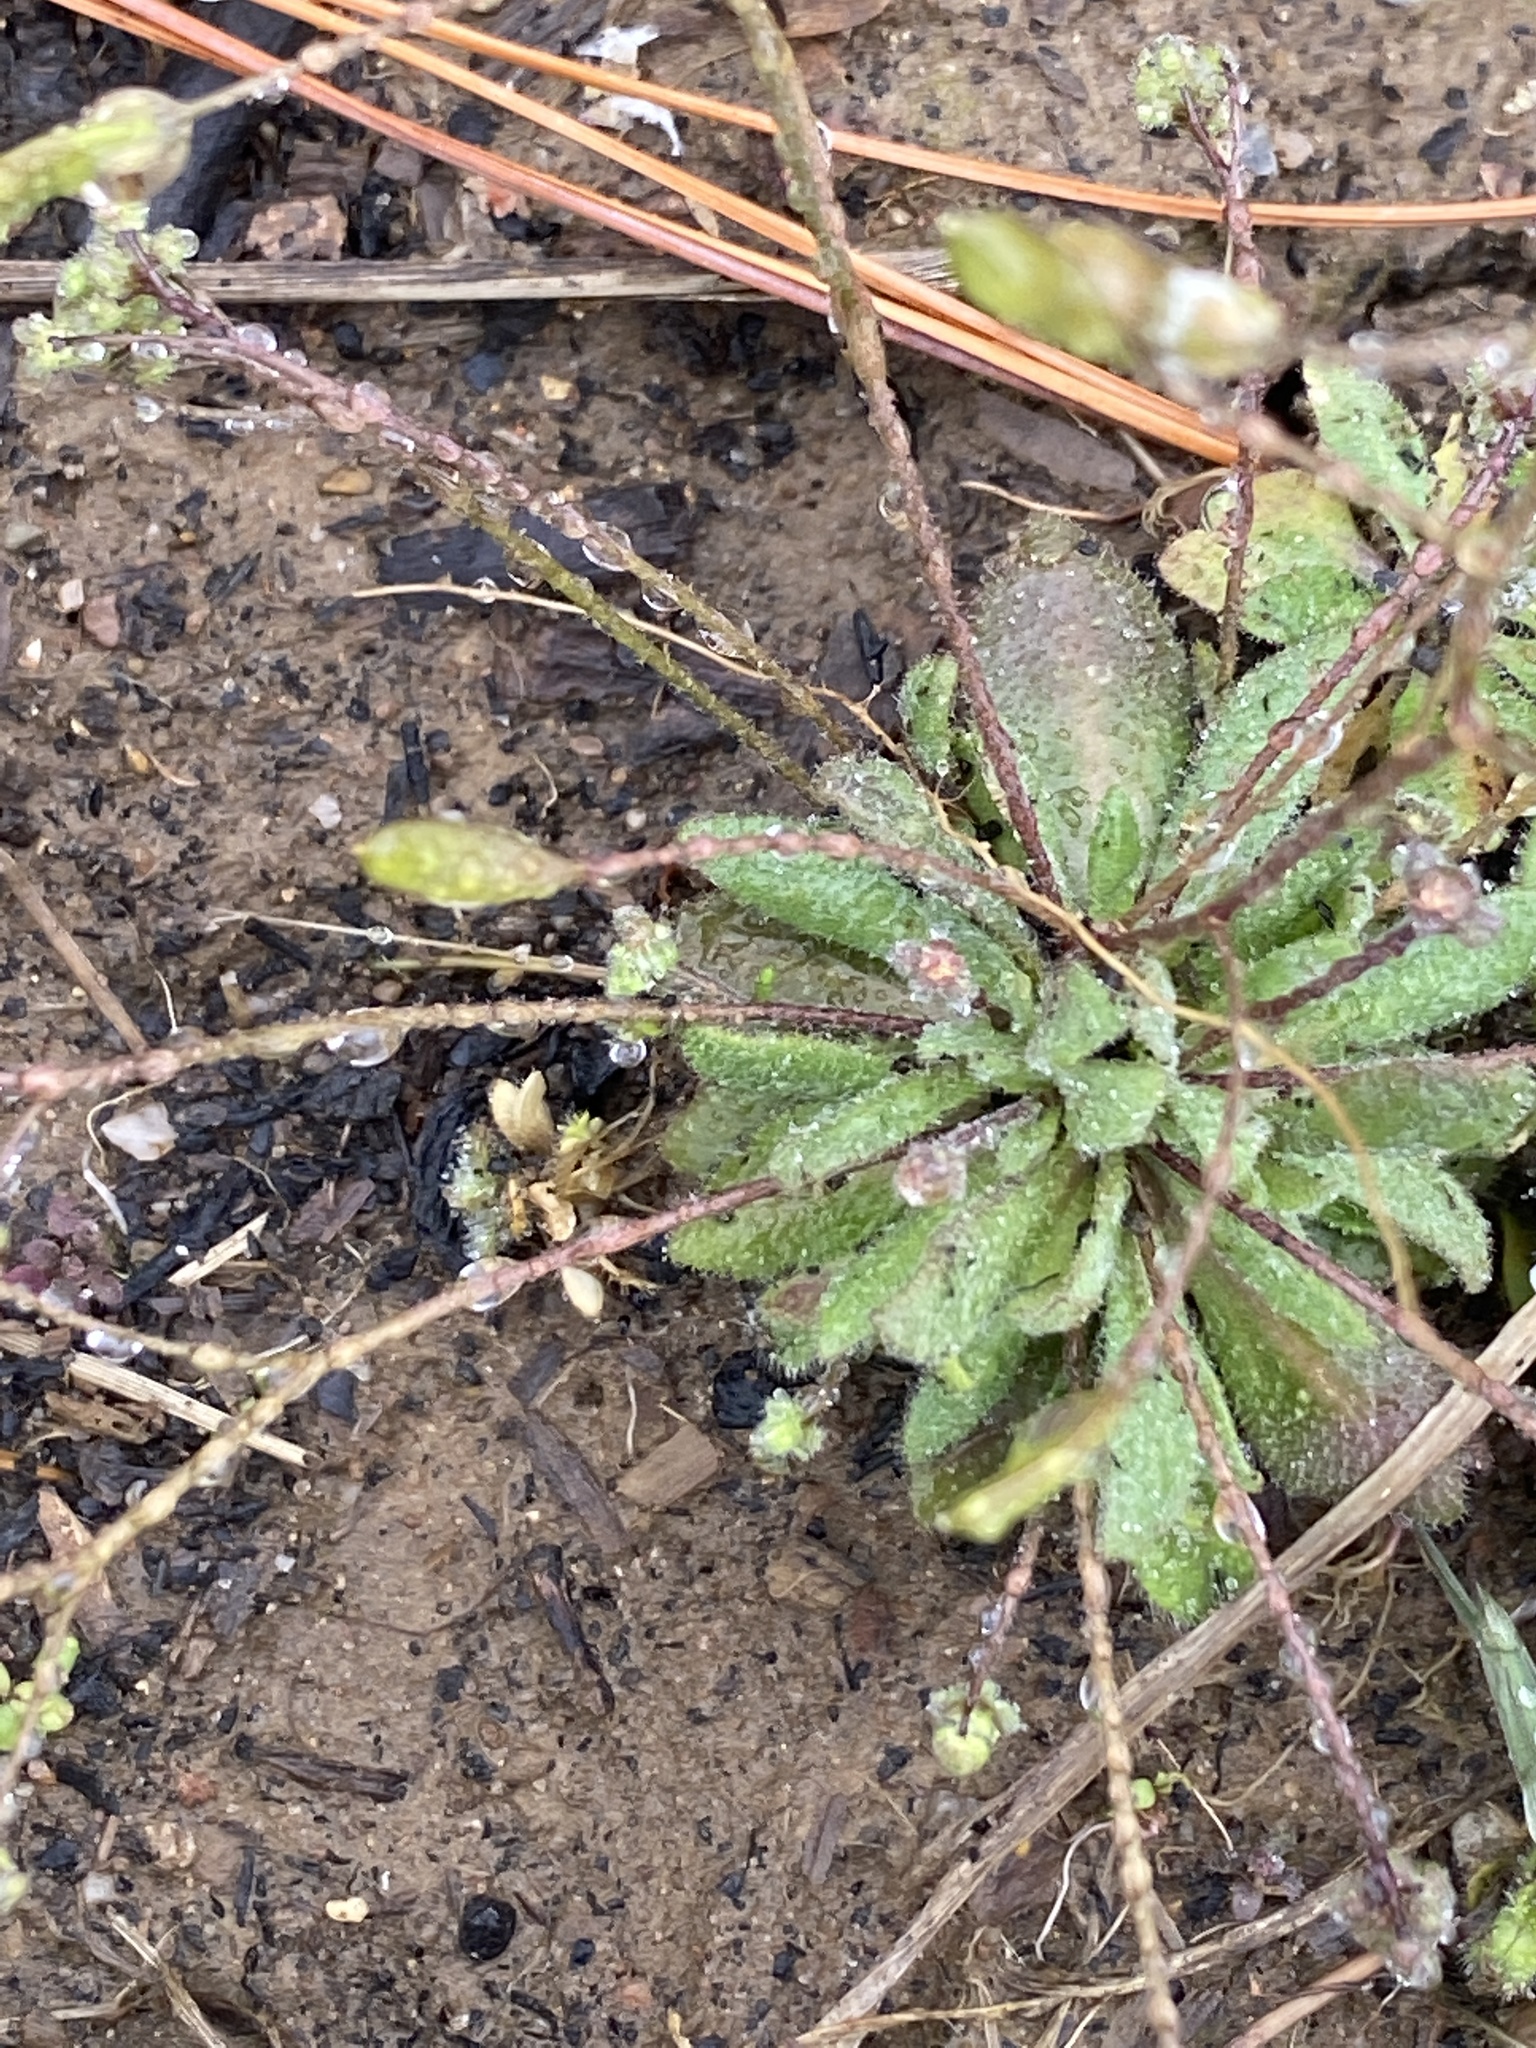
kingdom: Plantae
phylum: Tracheophyta
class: Magnoliopsida
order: Brassicales
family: Brassicaceae
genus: Draba
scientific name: Draba verna
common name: Spring draba
